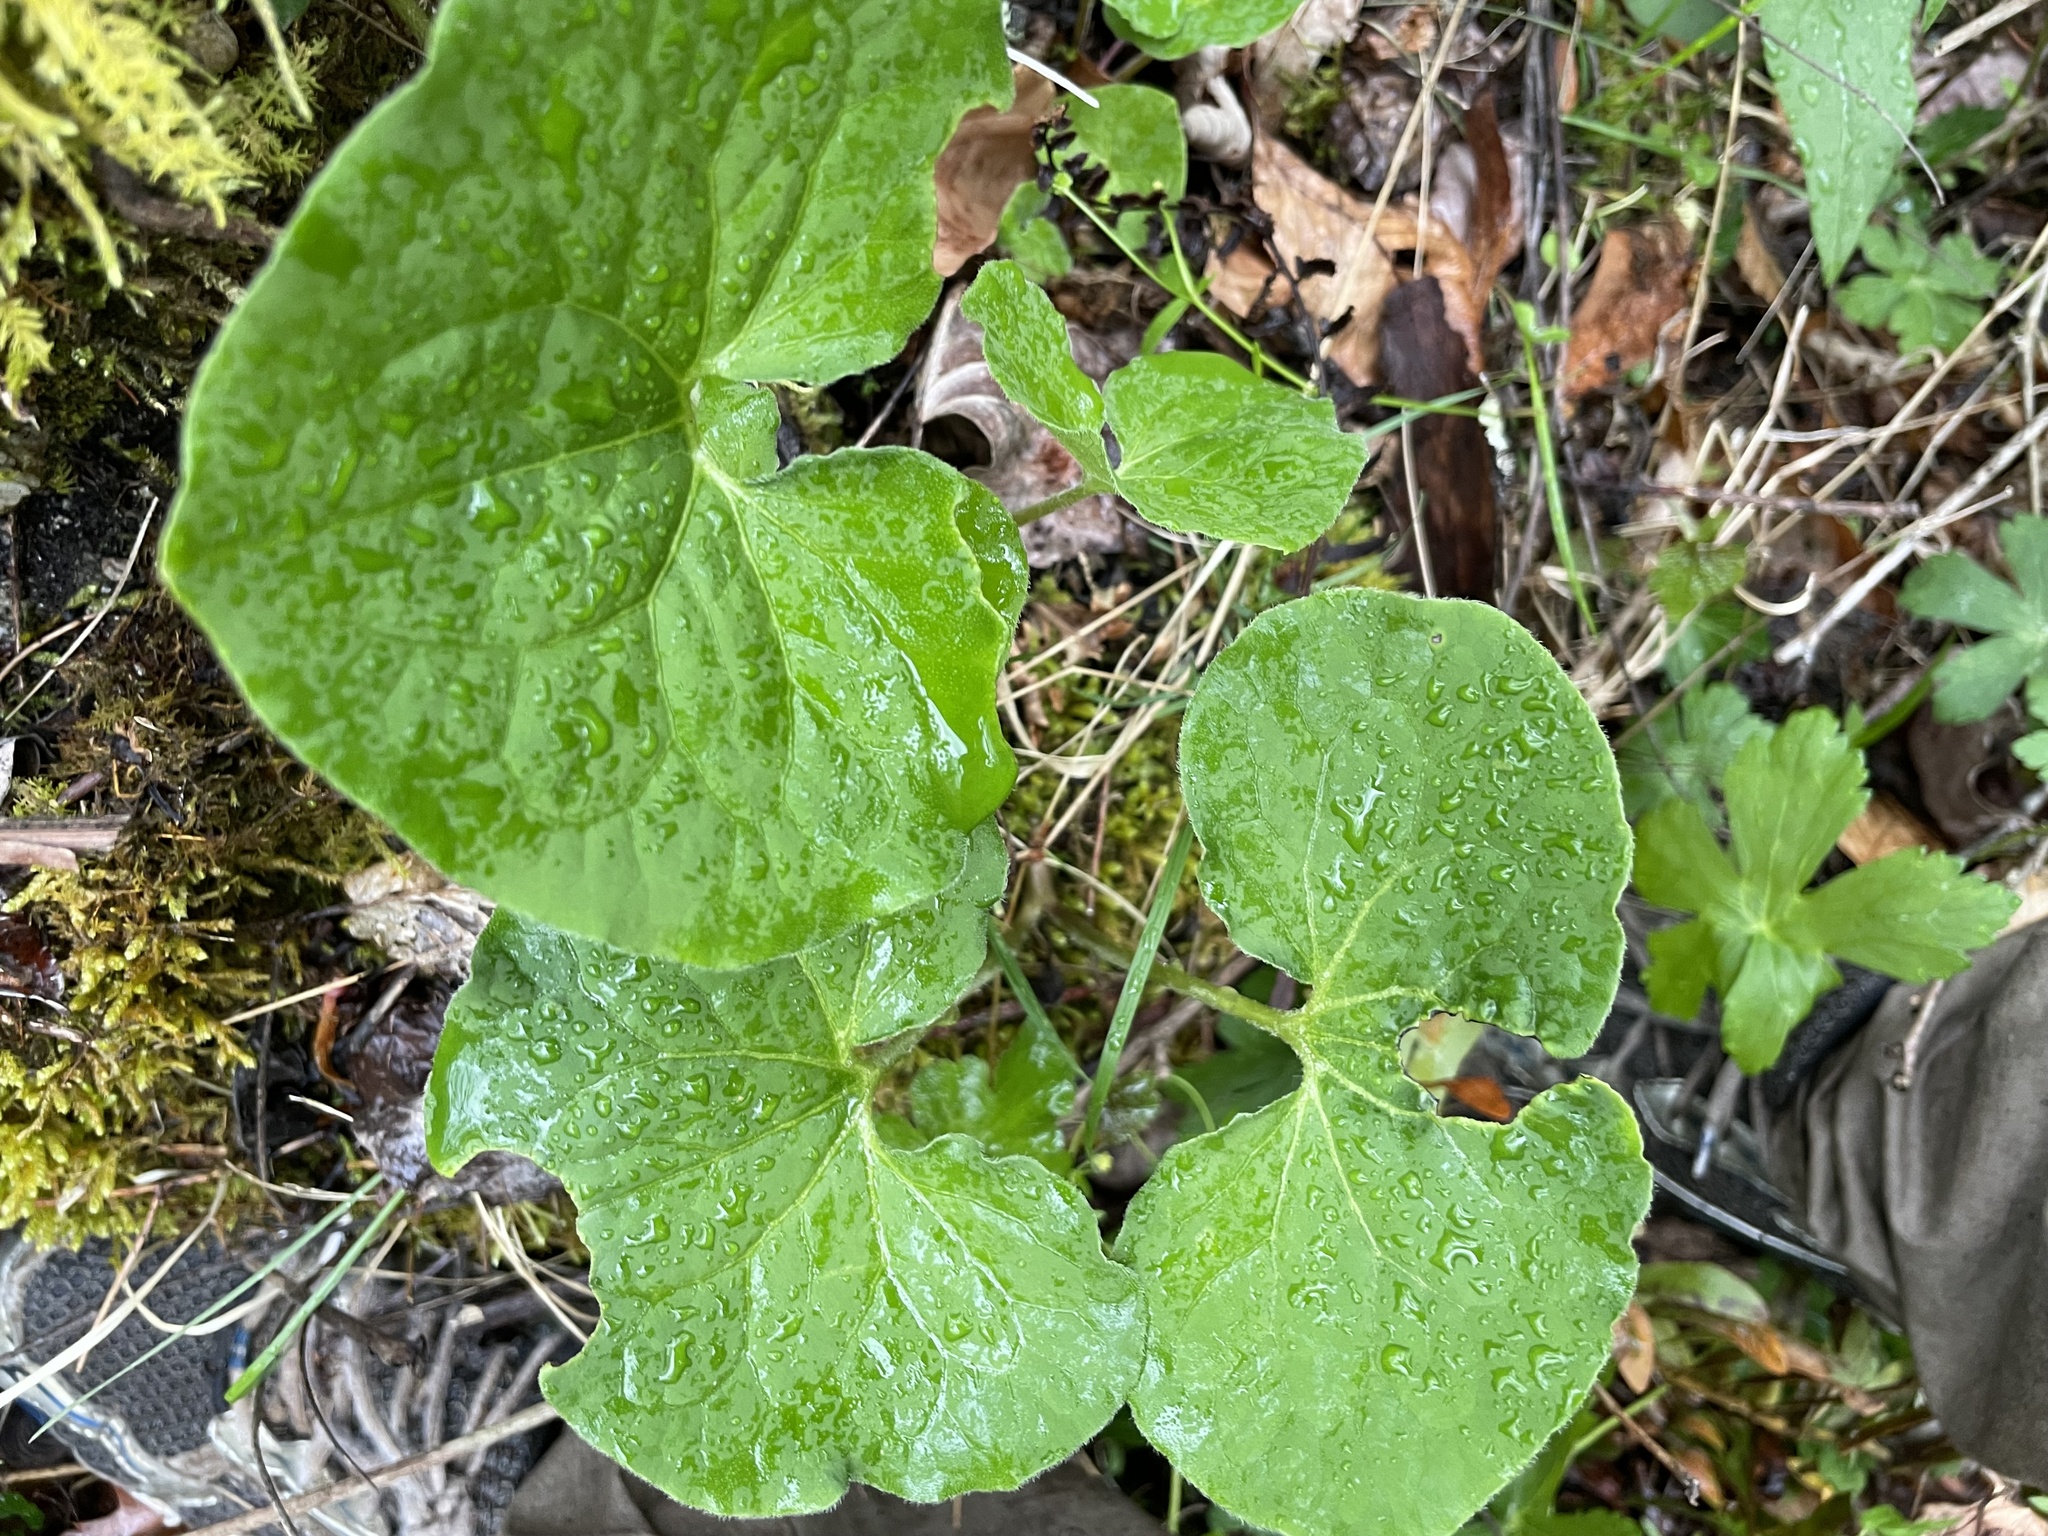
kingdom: Plantae
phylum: Tracheophyta
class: Magnoliopsida
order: Piperales
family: Aristolochiaceae
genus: Asarum
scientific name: Asarum canadense
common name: Wild ginger
